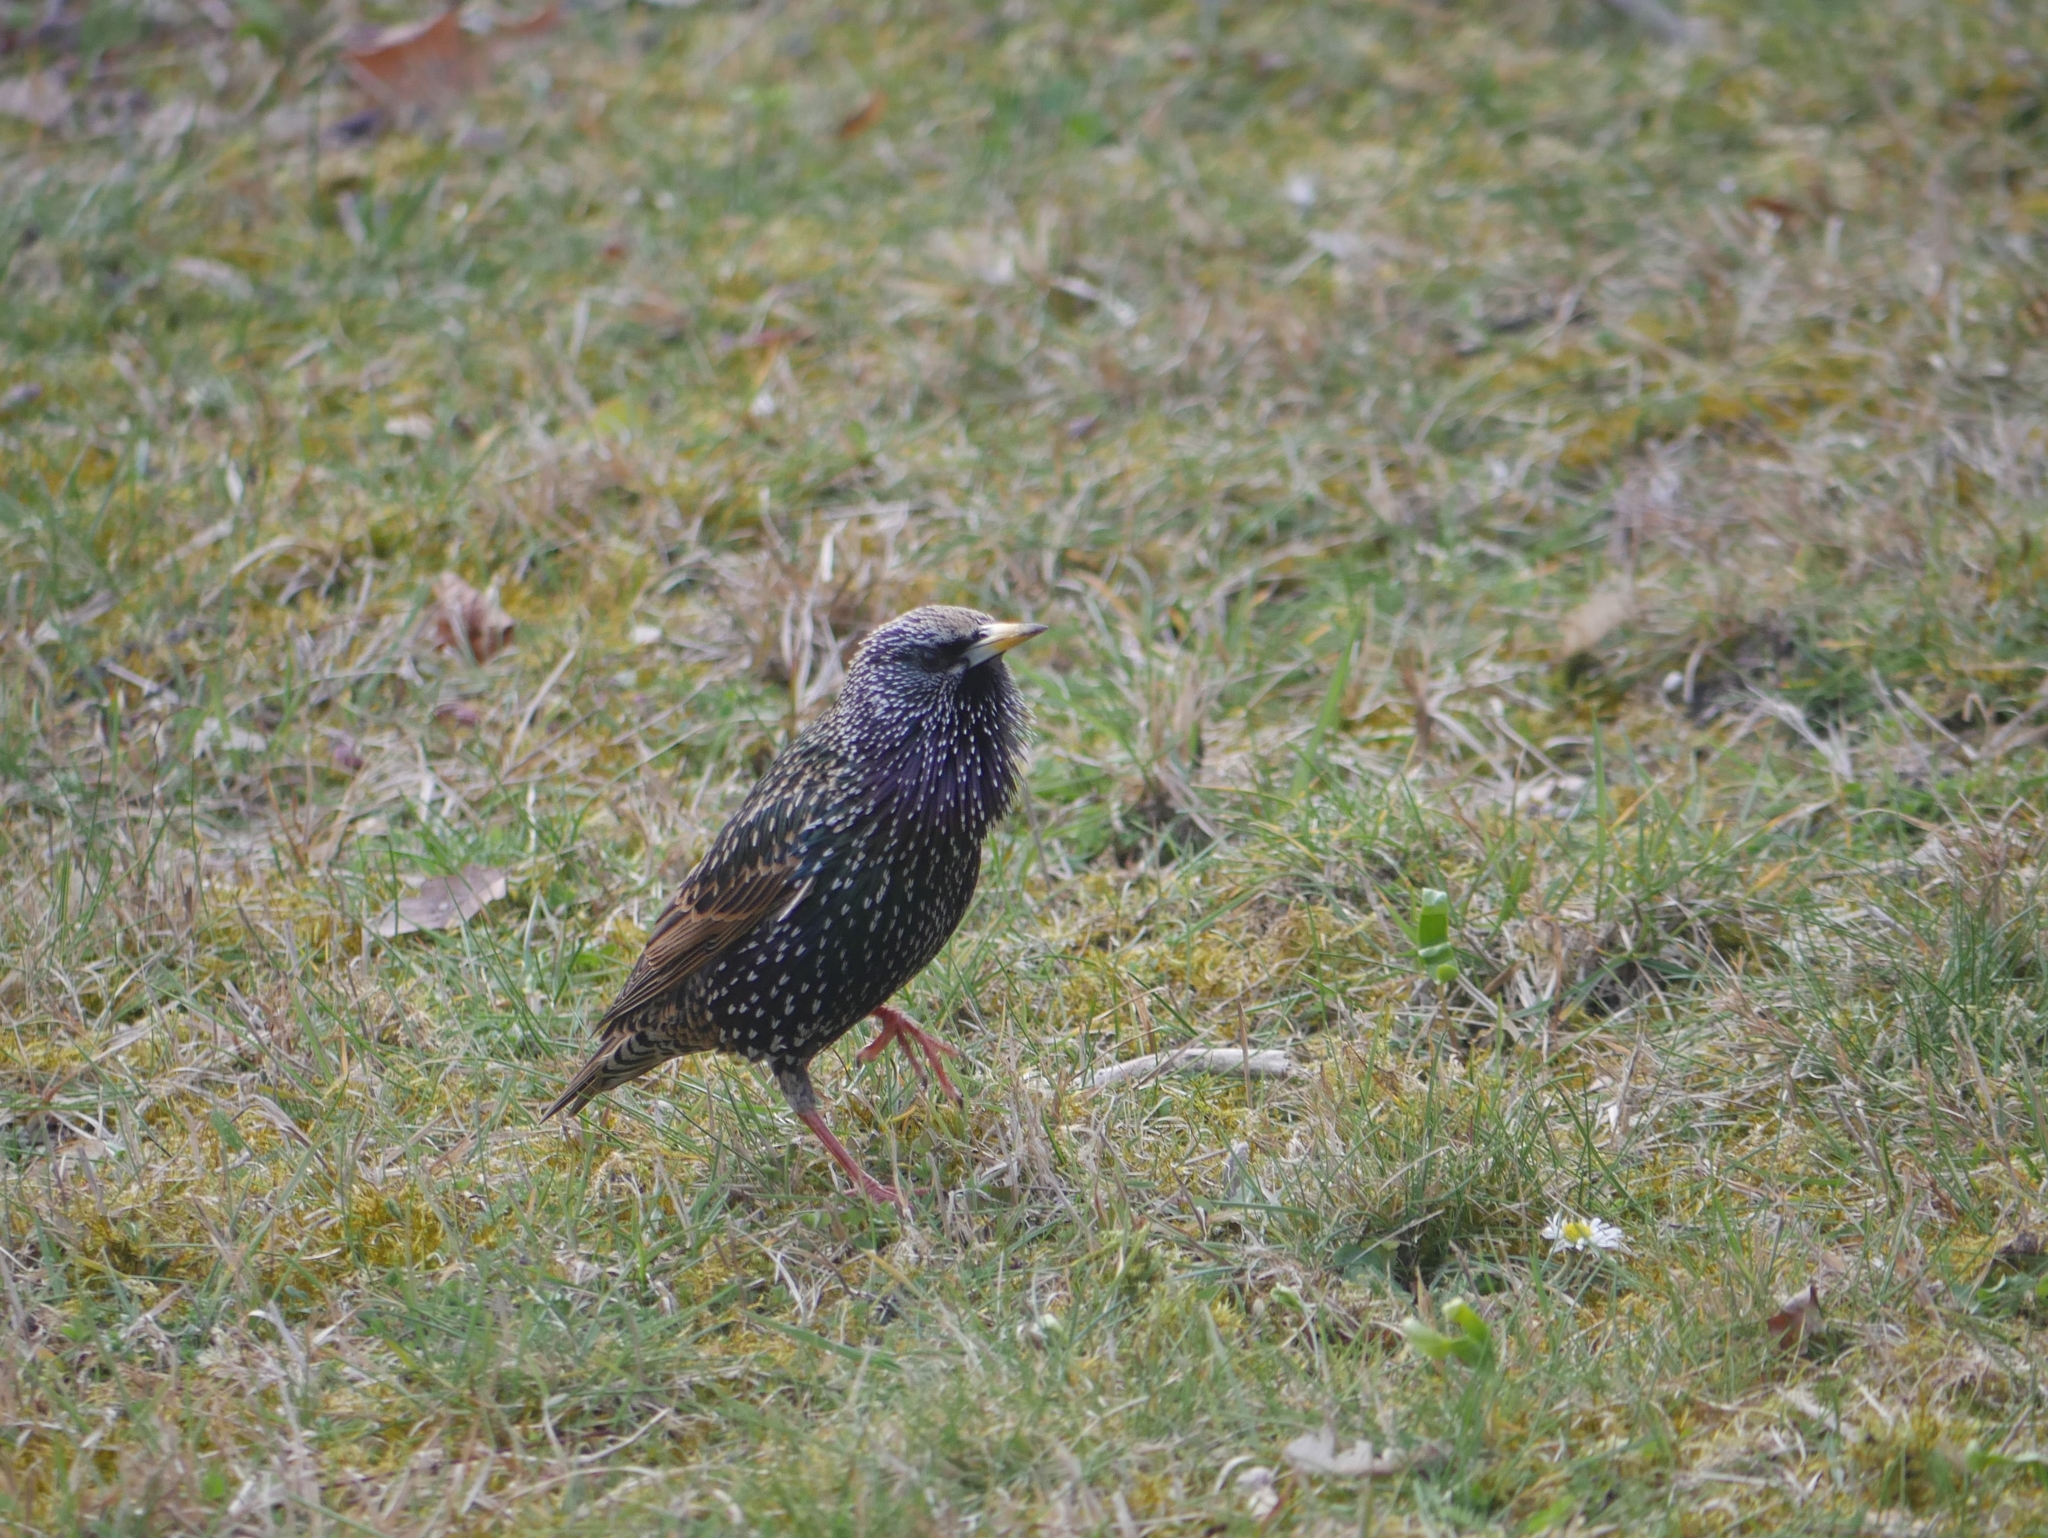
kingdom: Animalia
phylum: Chordata
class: Aves
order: Passeriformes
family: Sturnidae
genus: Sturnus
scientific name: Sturnus vulgaris
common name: Common starling
